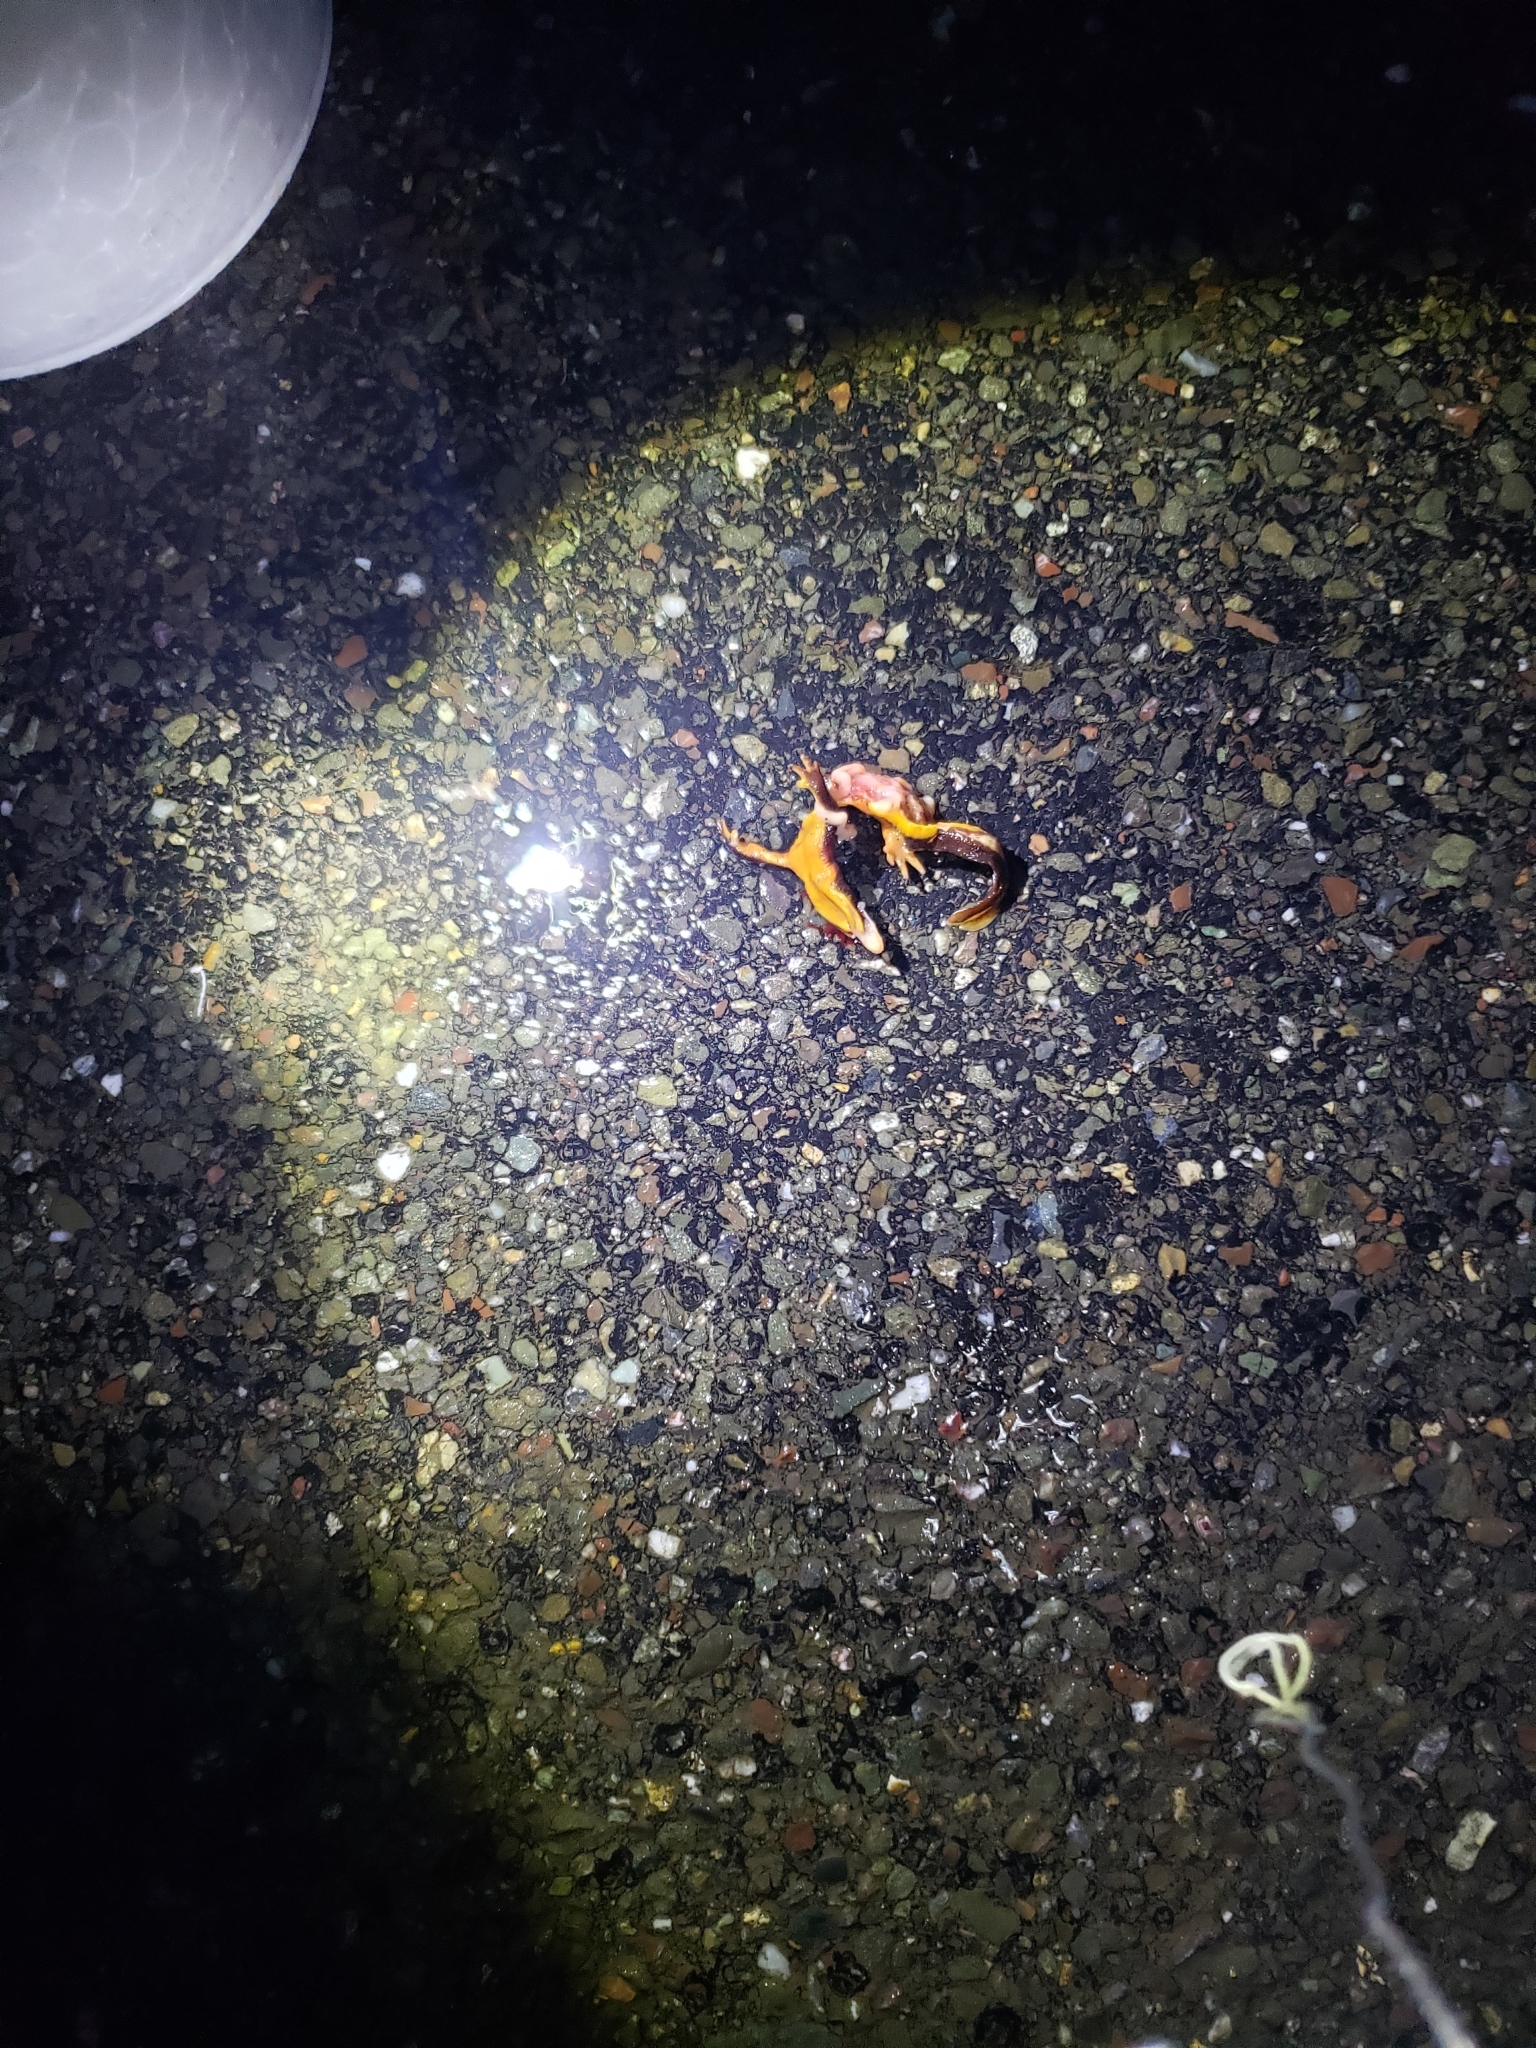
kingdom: Animalia
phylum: Chordata
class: Amphibia
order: Caudata
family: Salamandridae
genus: Taricha
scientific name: Taricha
